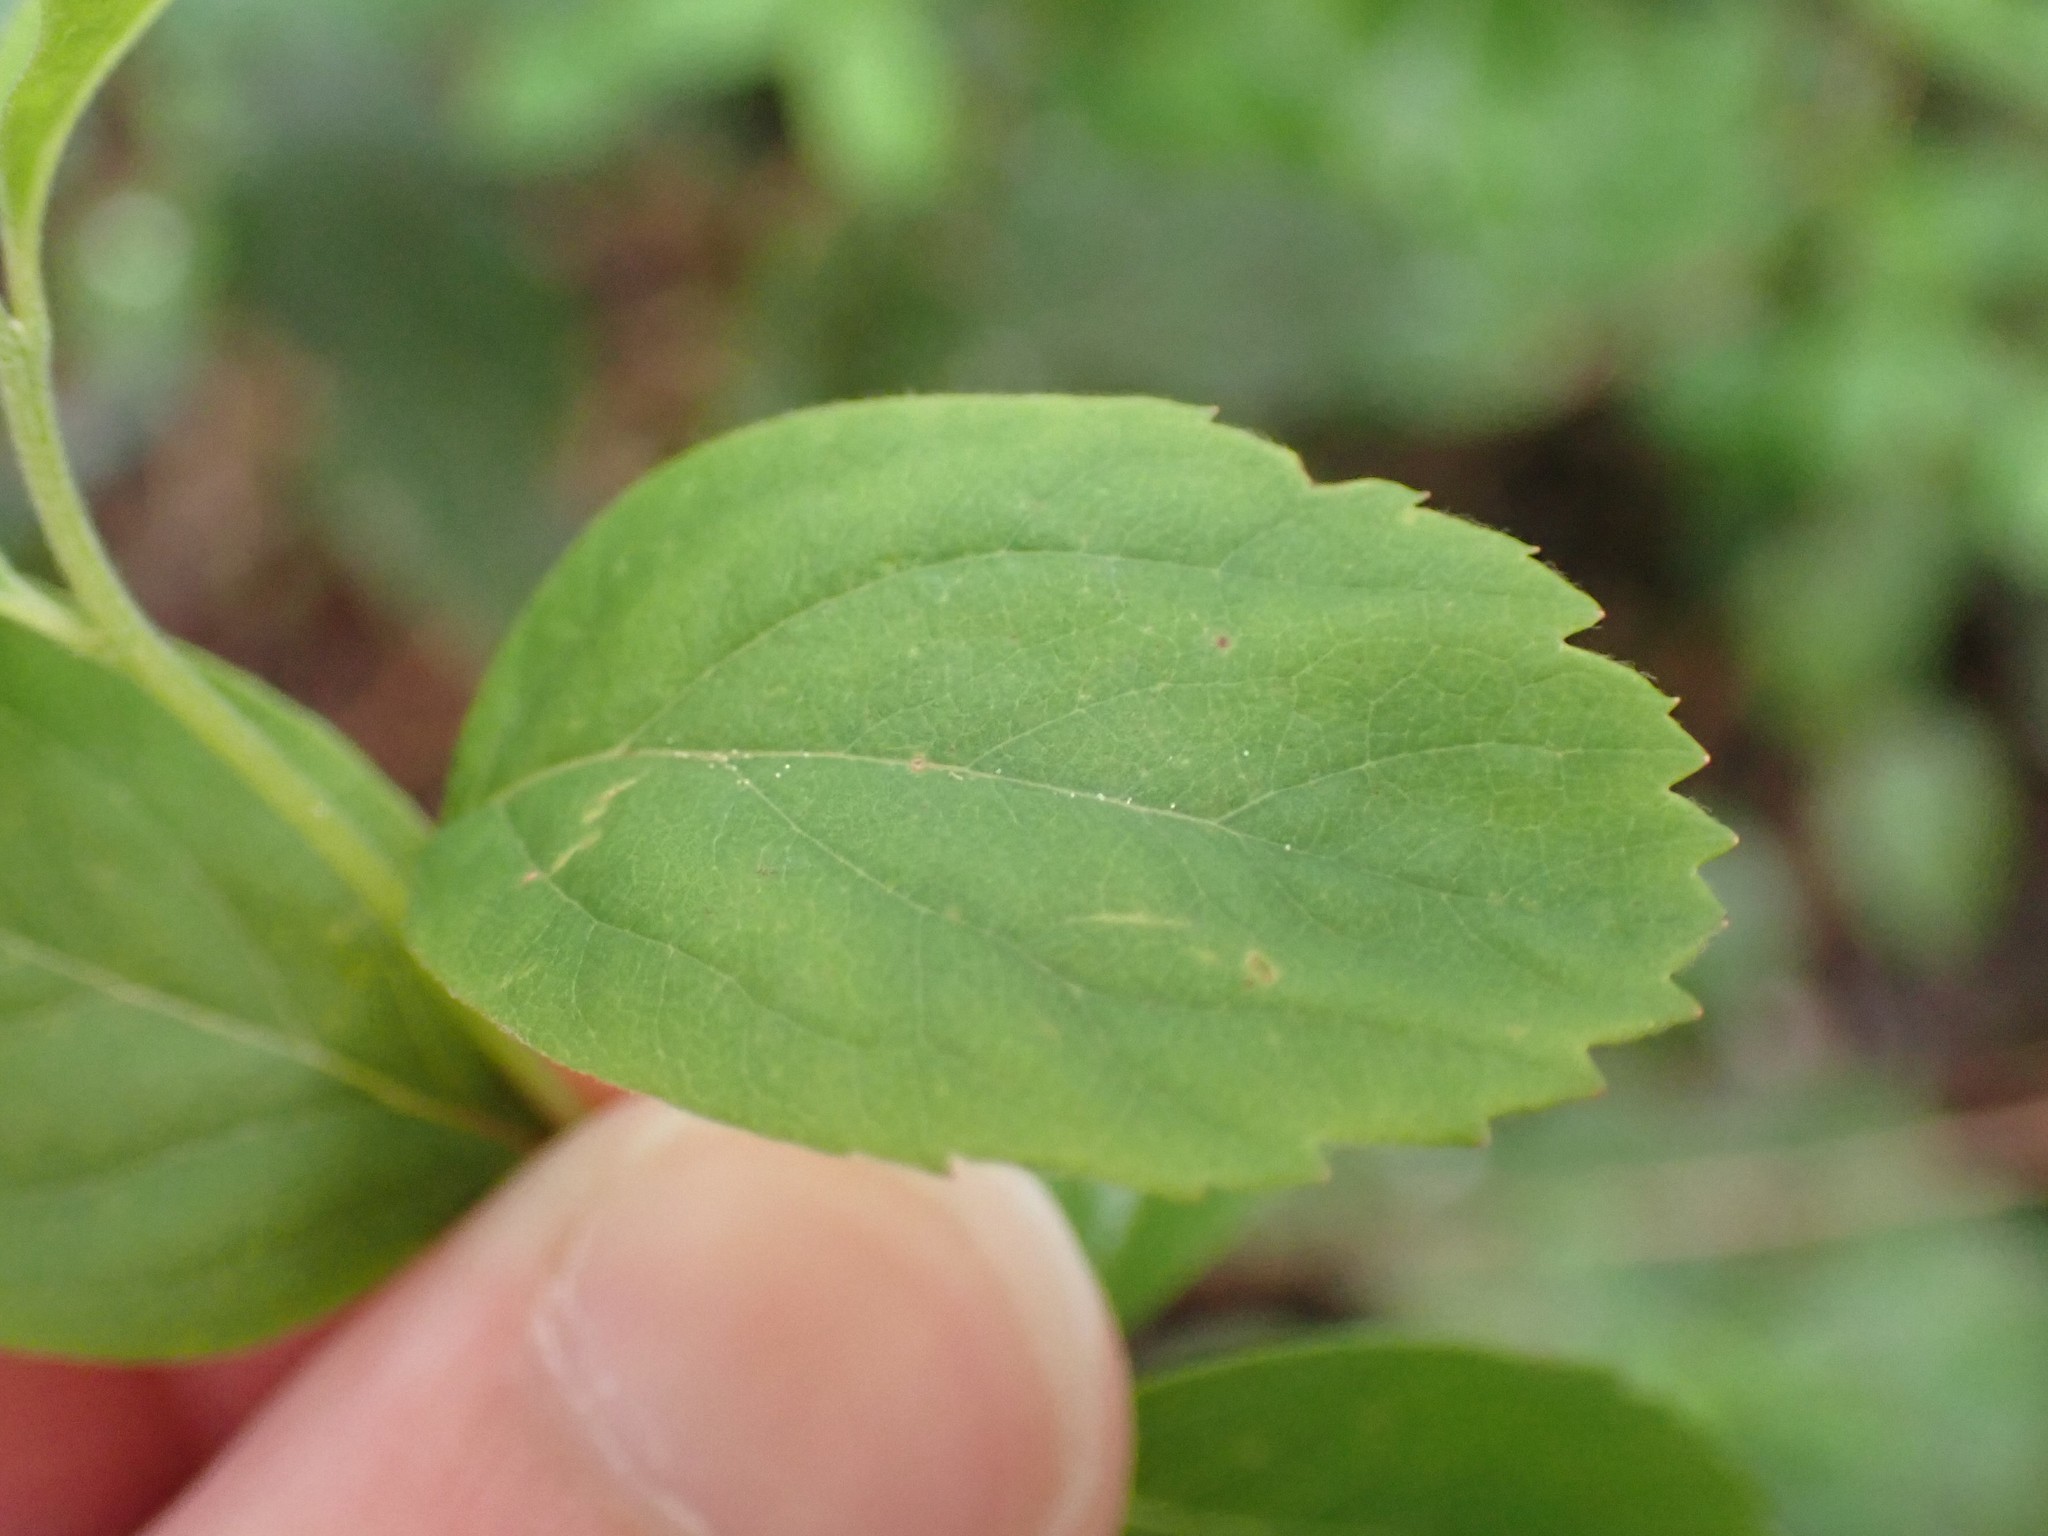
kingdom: Plantae
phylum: Tracheophyta
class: Magnoliopsida
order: Rosales
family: Rosaceae
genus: Spiraea
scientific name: Spiraea douglasii
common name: Steeplebush
